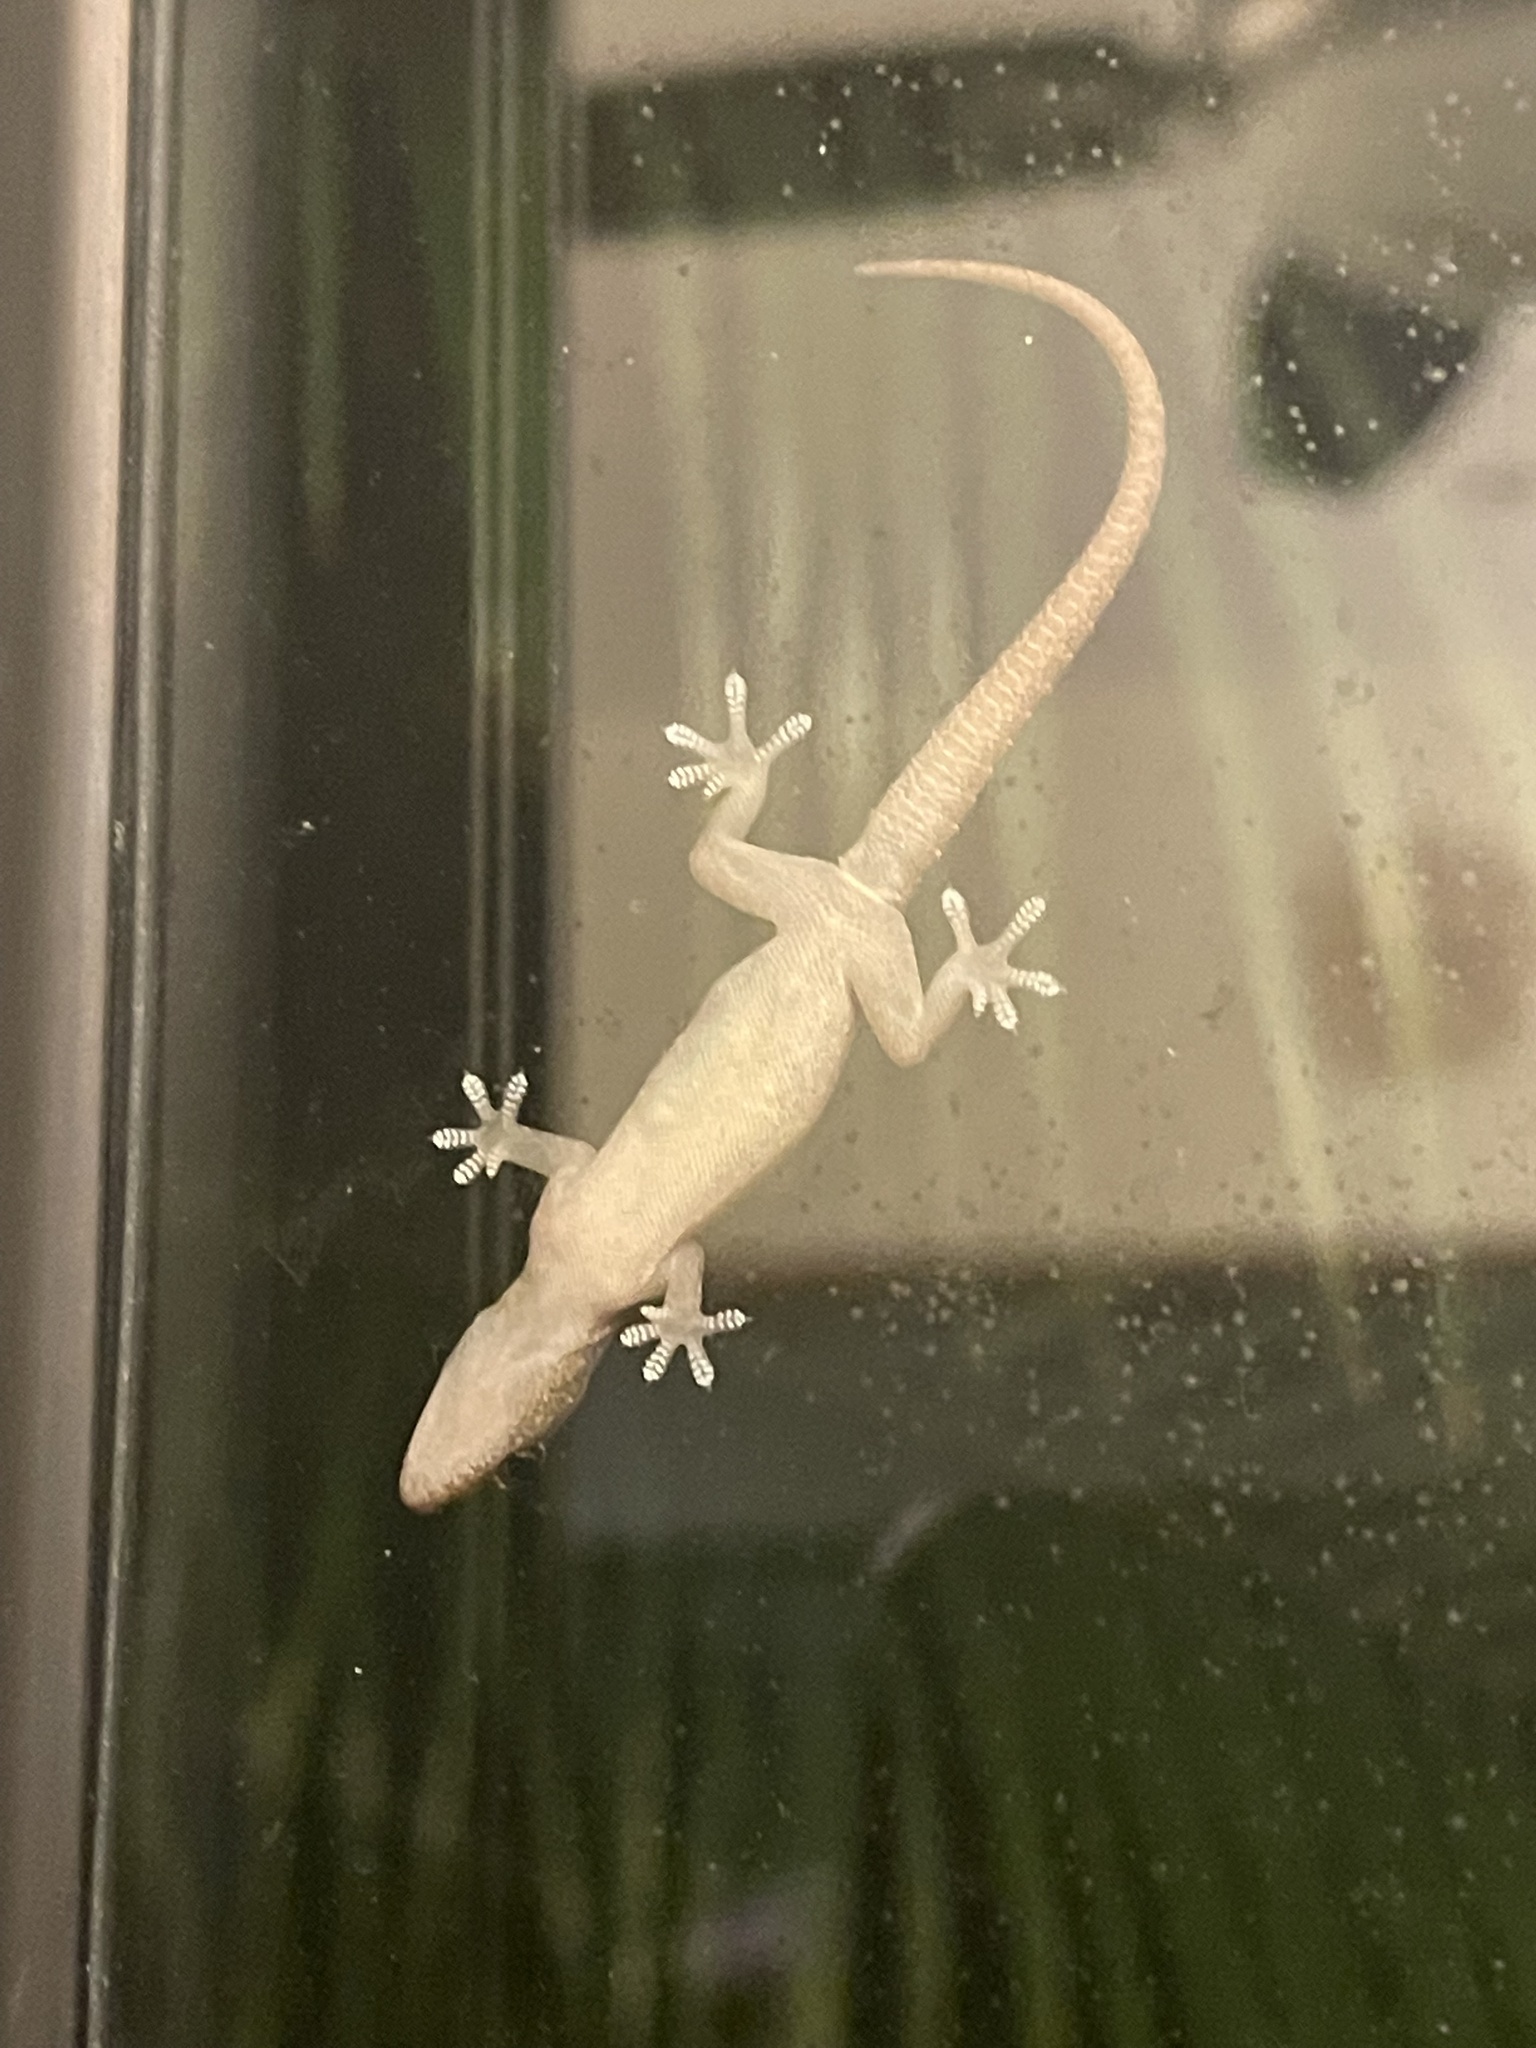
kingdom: Animalia
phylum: Chordata
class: Squamata
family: Gekkonidae
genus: Hemidactylus
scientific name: Hemidactylus frenatus
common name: Common house gecko
